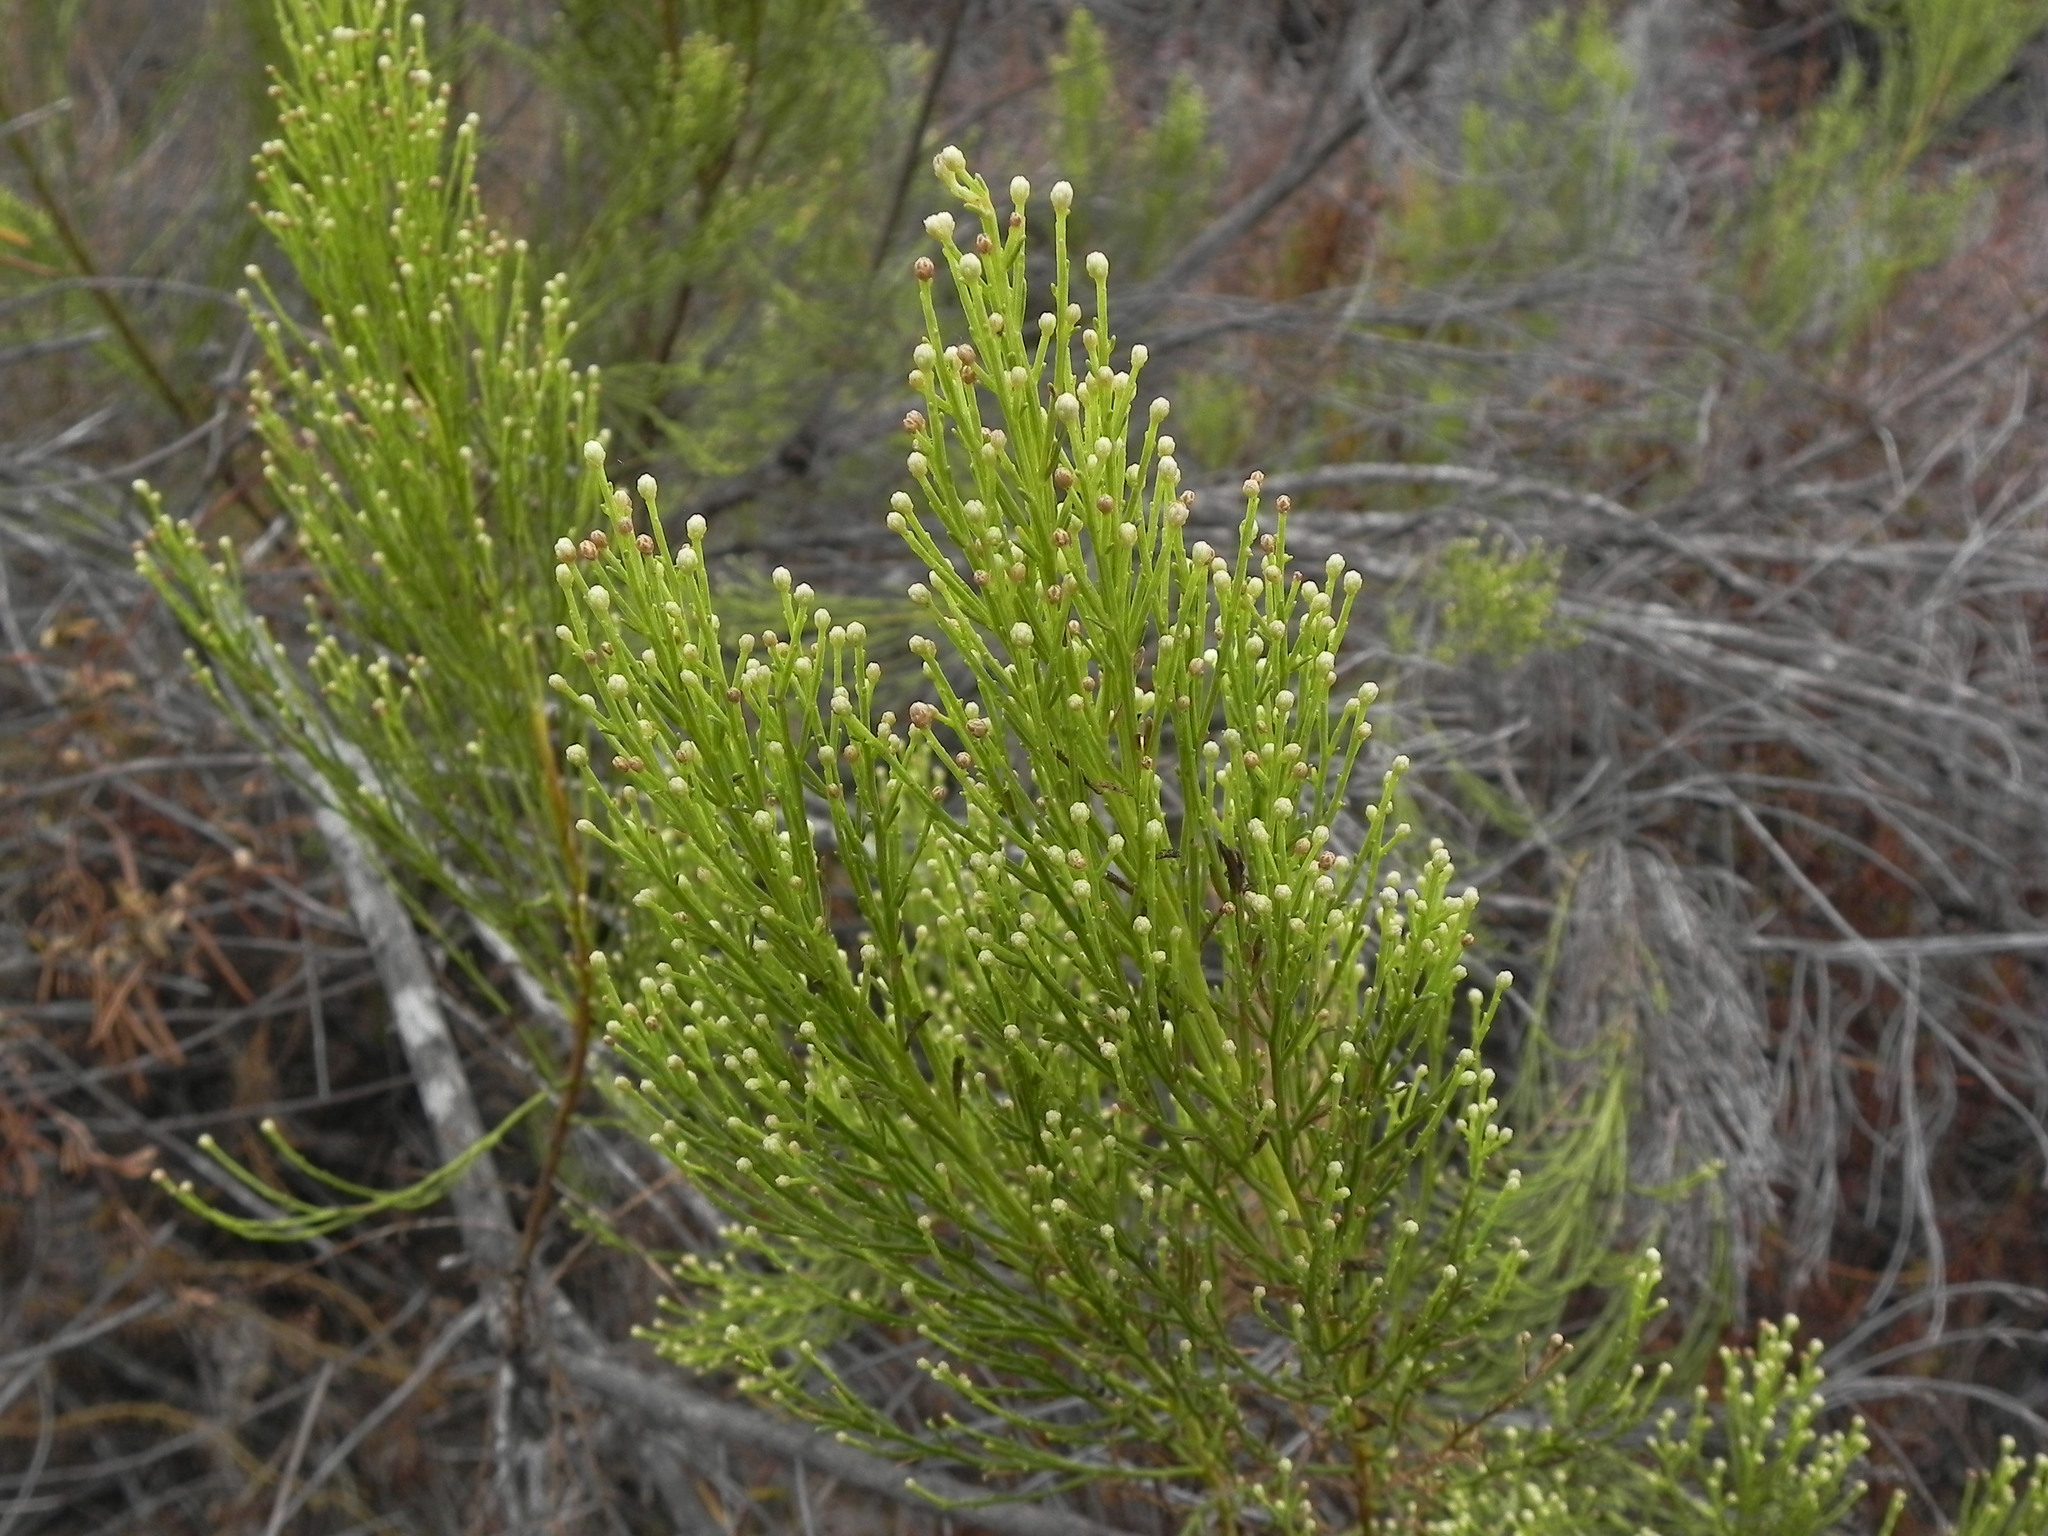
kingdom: Plantae
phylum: Tracheophyta
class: Magnoliopsida
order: Asterales
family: Asteraceae
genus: Baccharis
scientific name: Baccharis sarothroides
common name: Desert-broom
